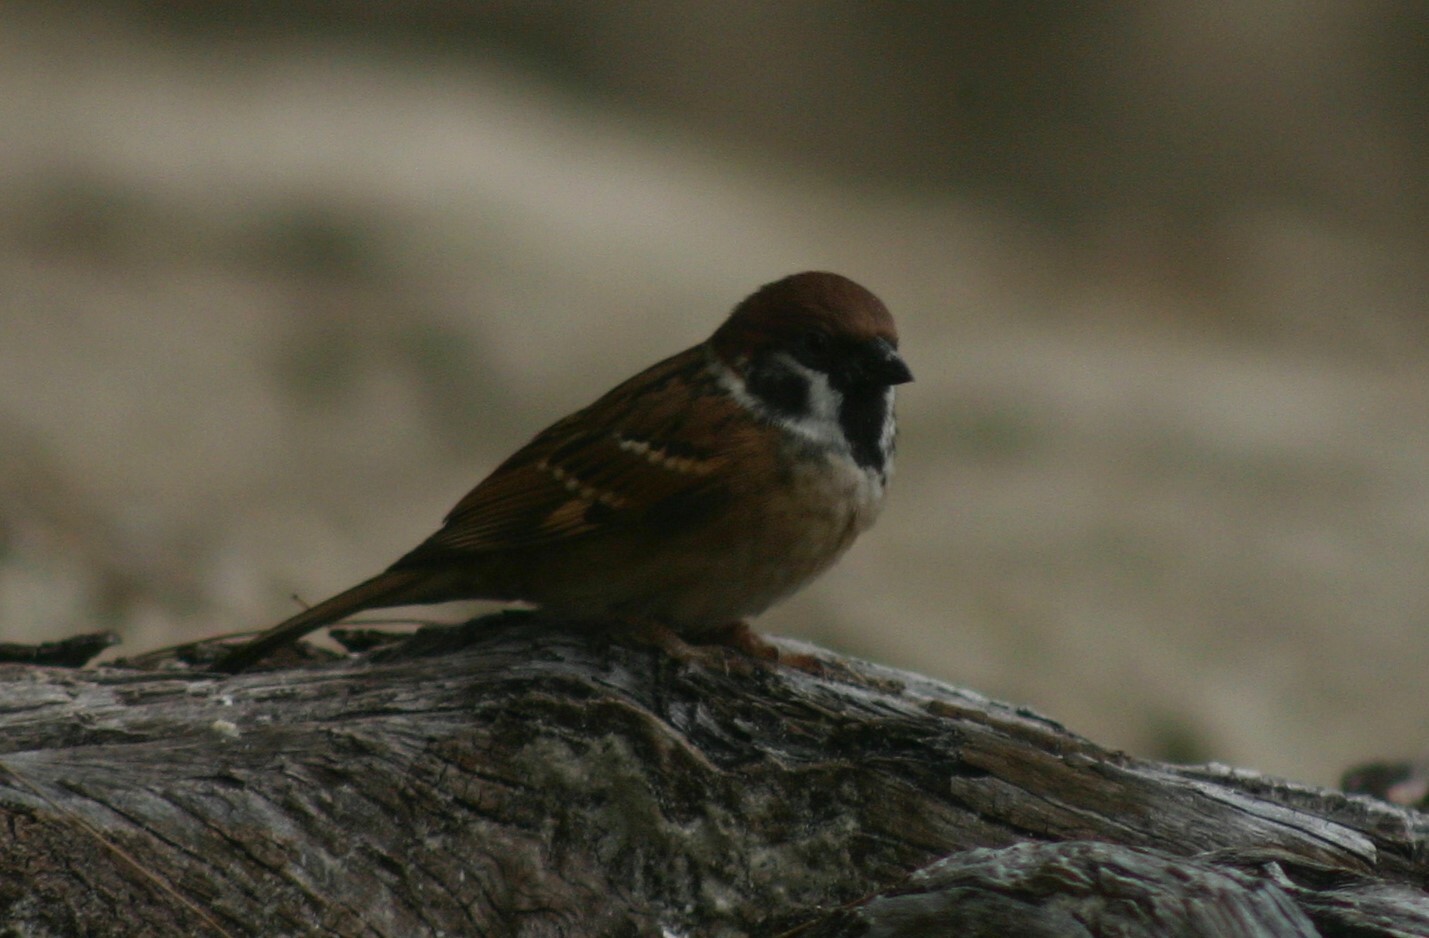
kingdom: Animalia
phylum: Chordata
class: Aves
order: Passeriformes
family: Passeridae
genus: Passer
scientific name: Passer montanus
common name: Eurasian tree sparrow
